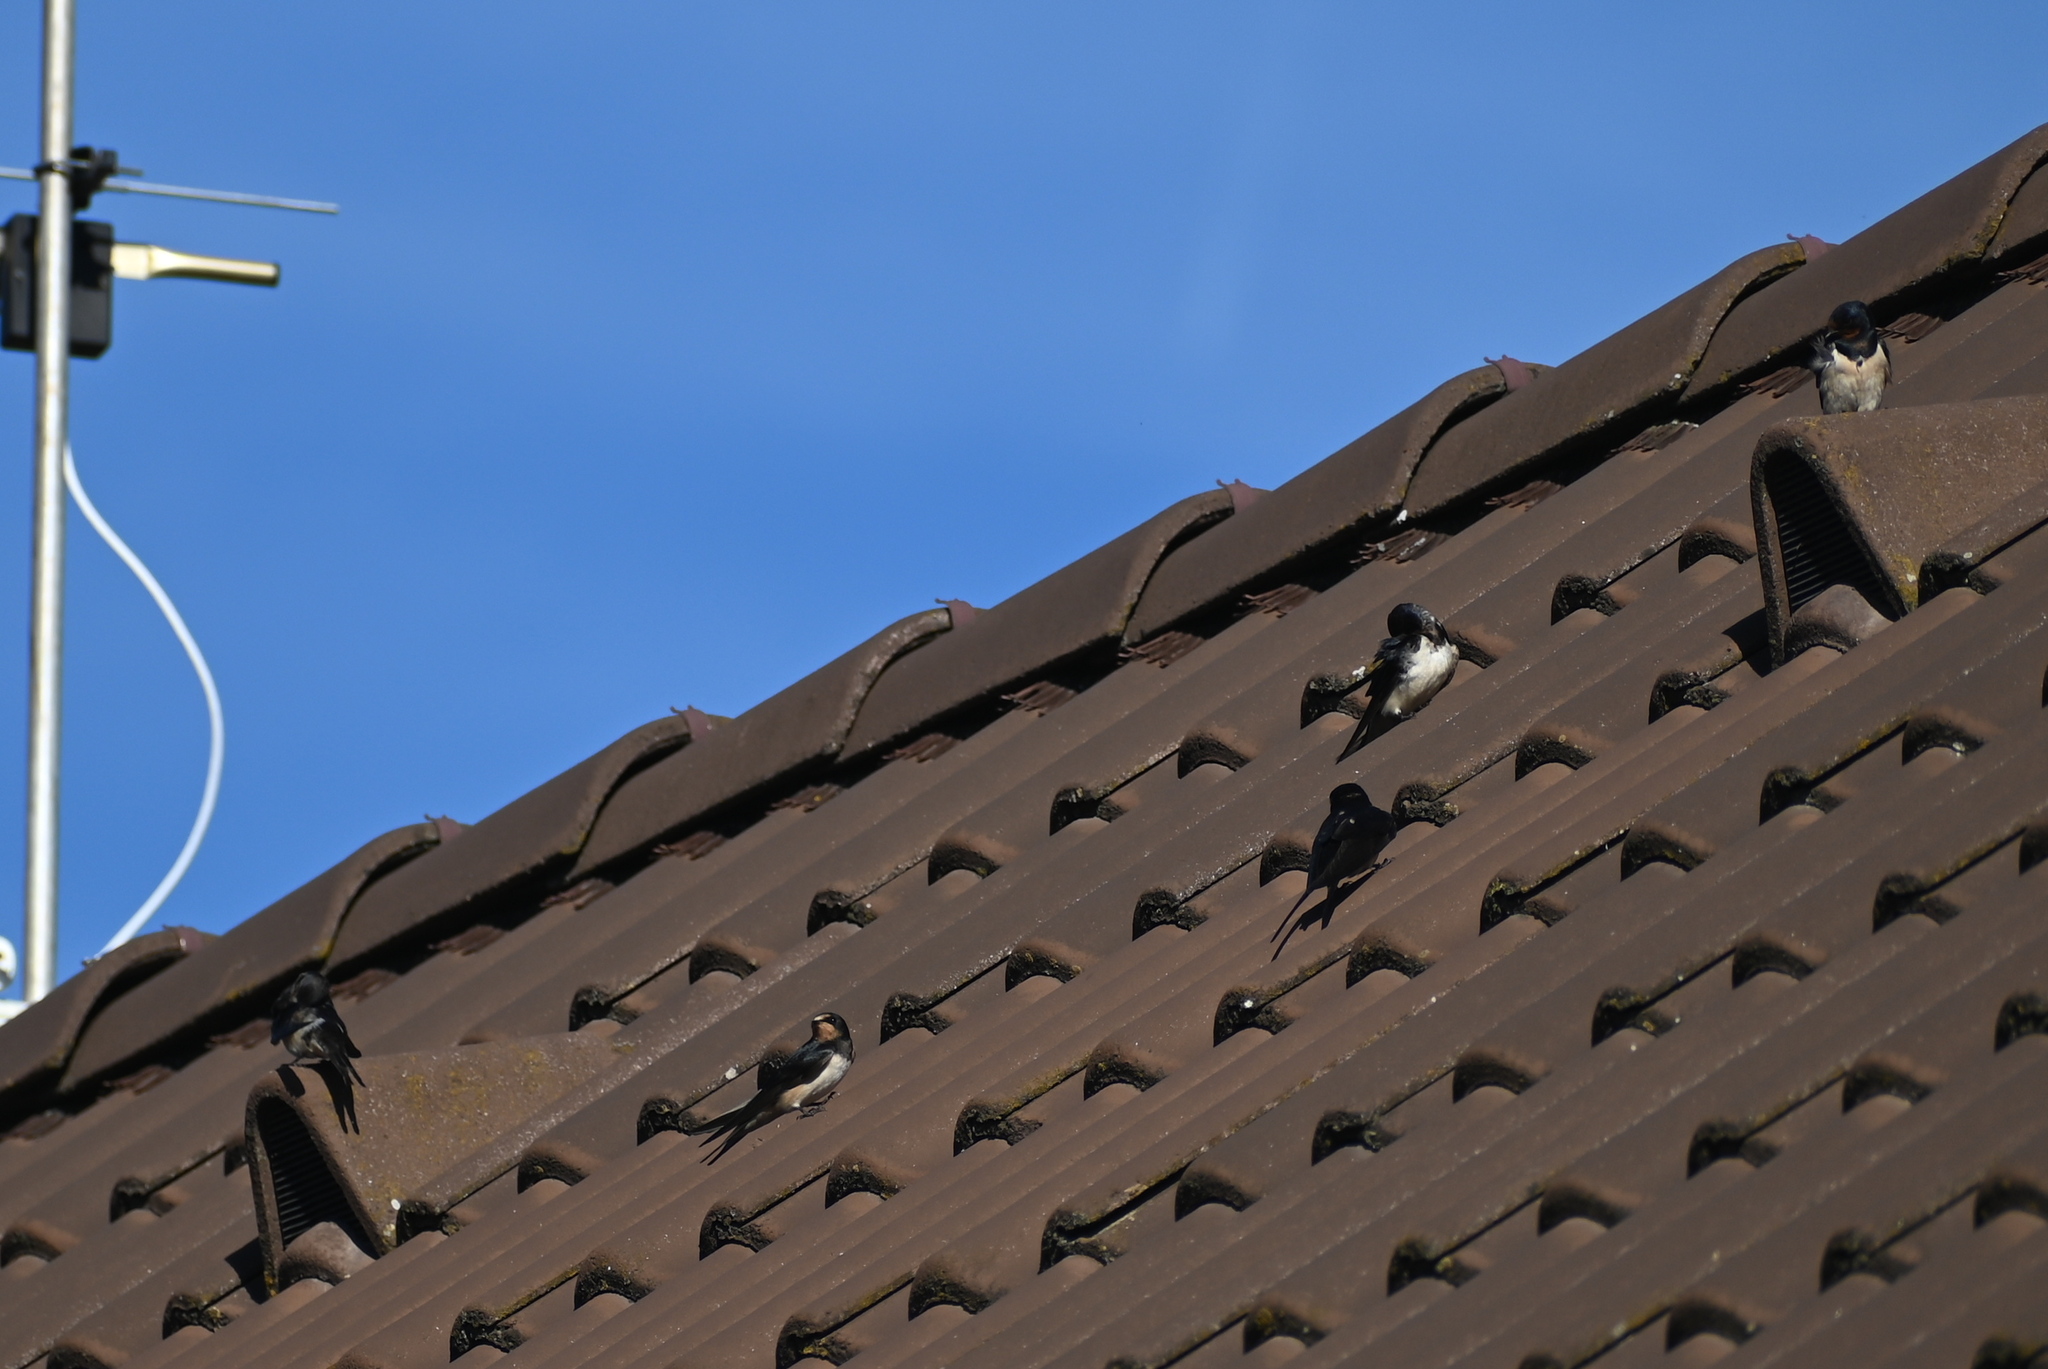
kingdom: Animalia
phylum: Chordata
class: Aves
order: Passeriformes
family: Hirundinidae
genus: Hirundo
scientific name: Hirundo rustica
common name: Barn swallow
